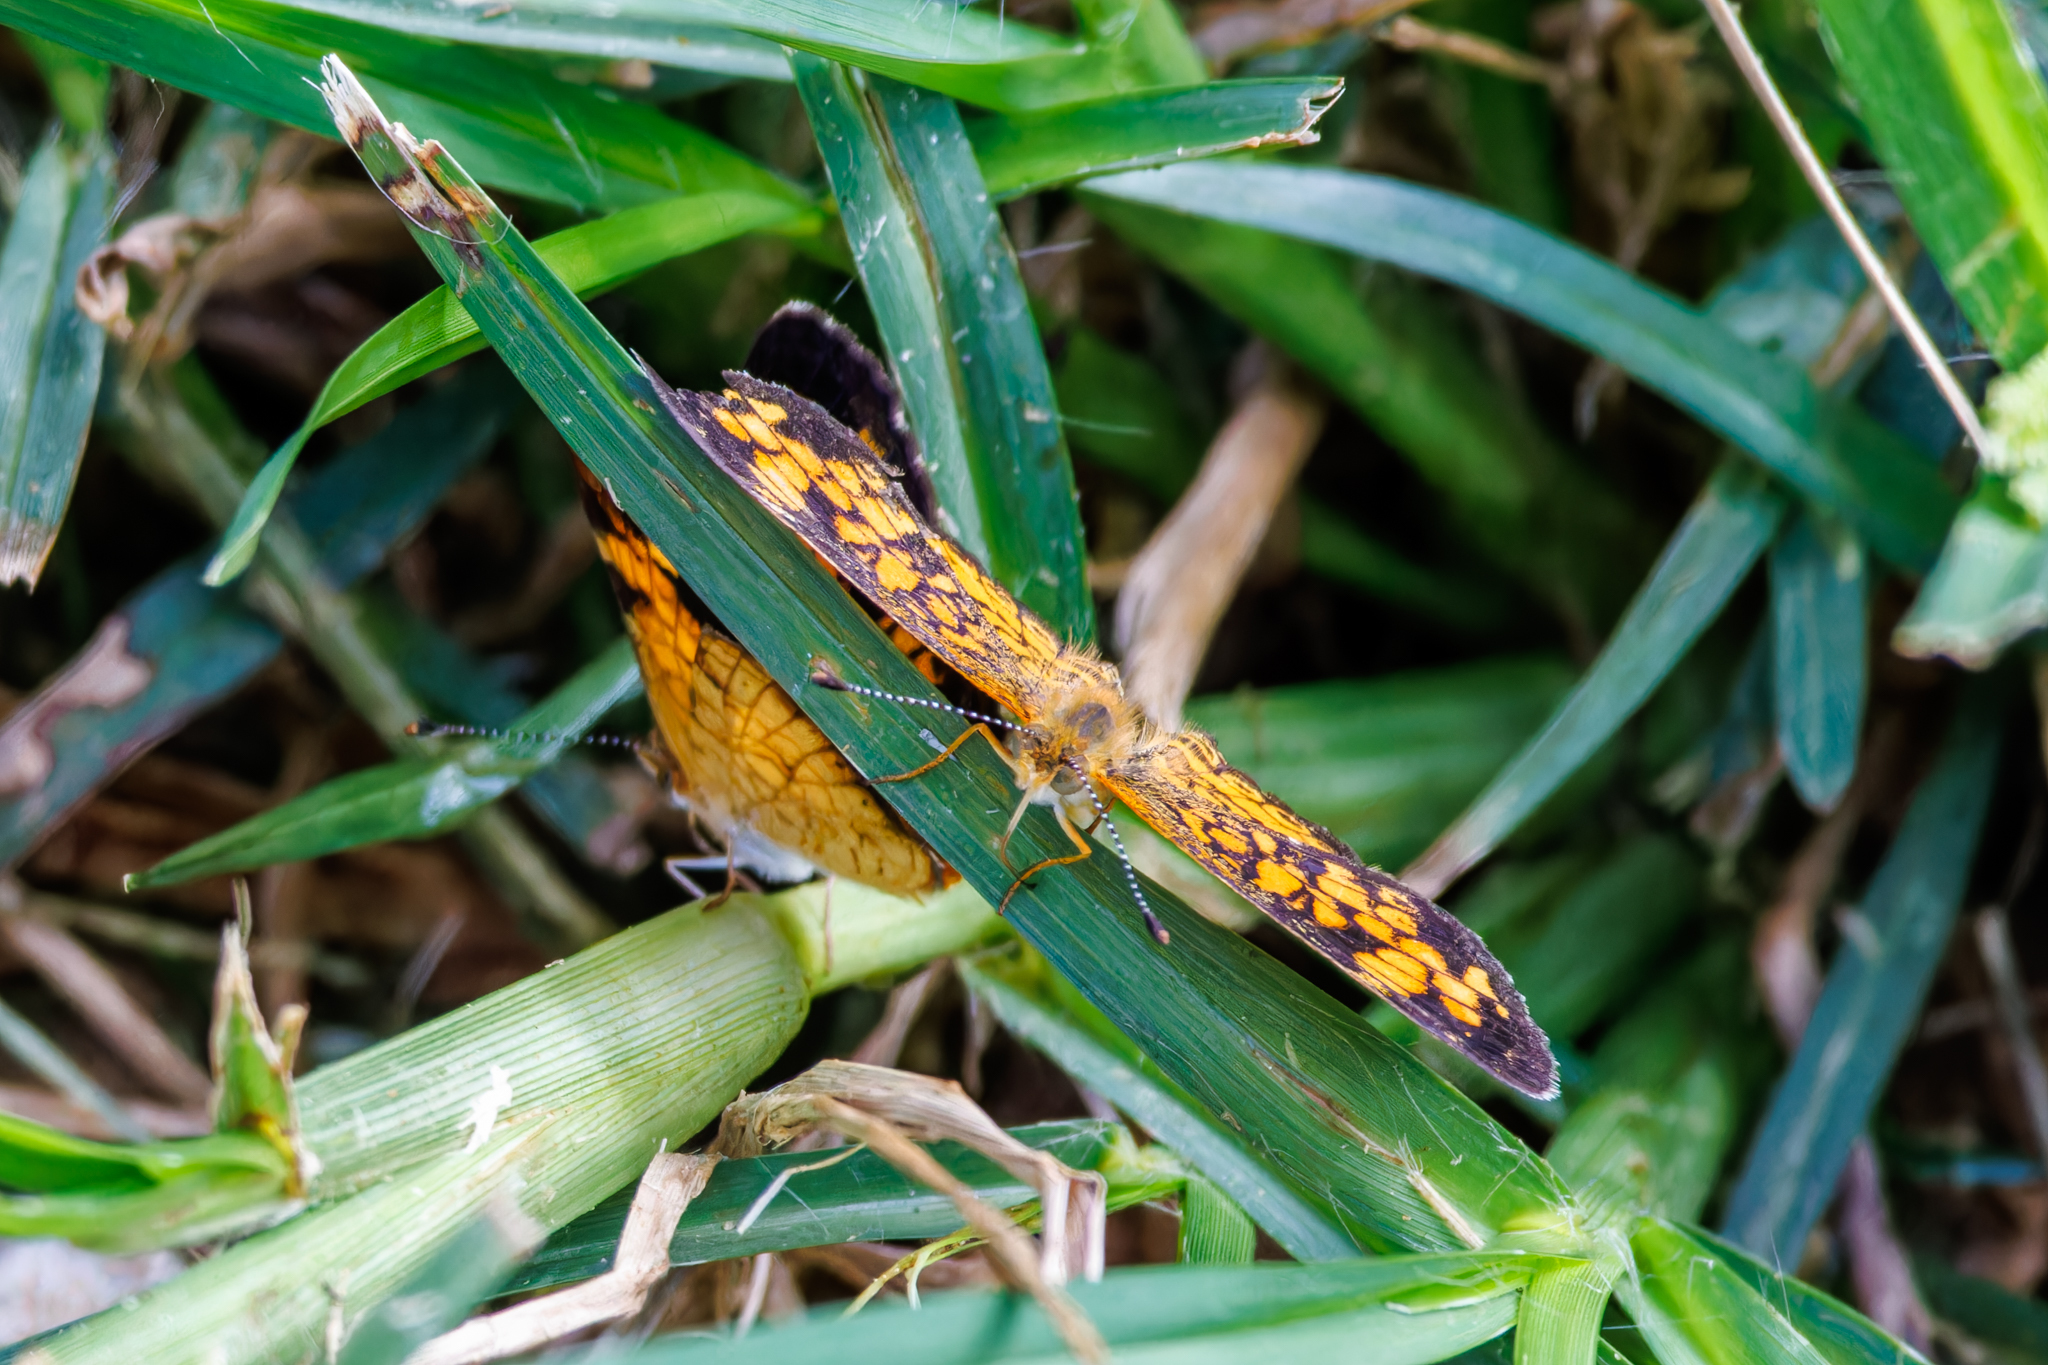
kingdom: Animalia
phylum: Arthropoda
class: Insecta
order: Lepidoptera
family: Nymphalidae
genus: Phyciodes
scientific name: Phyciodes tharos
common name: Pearl crescent
